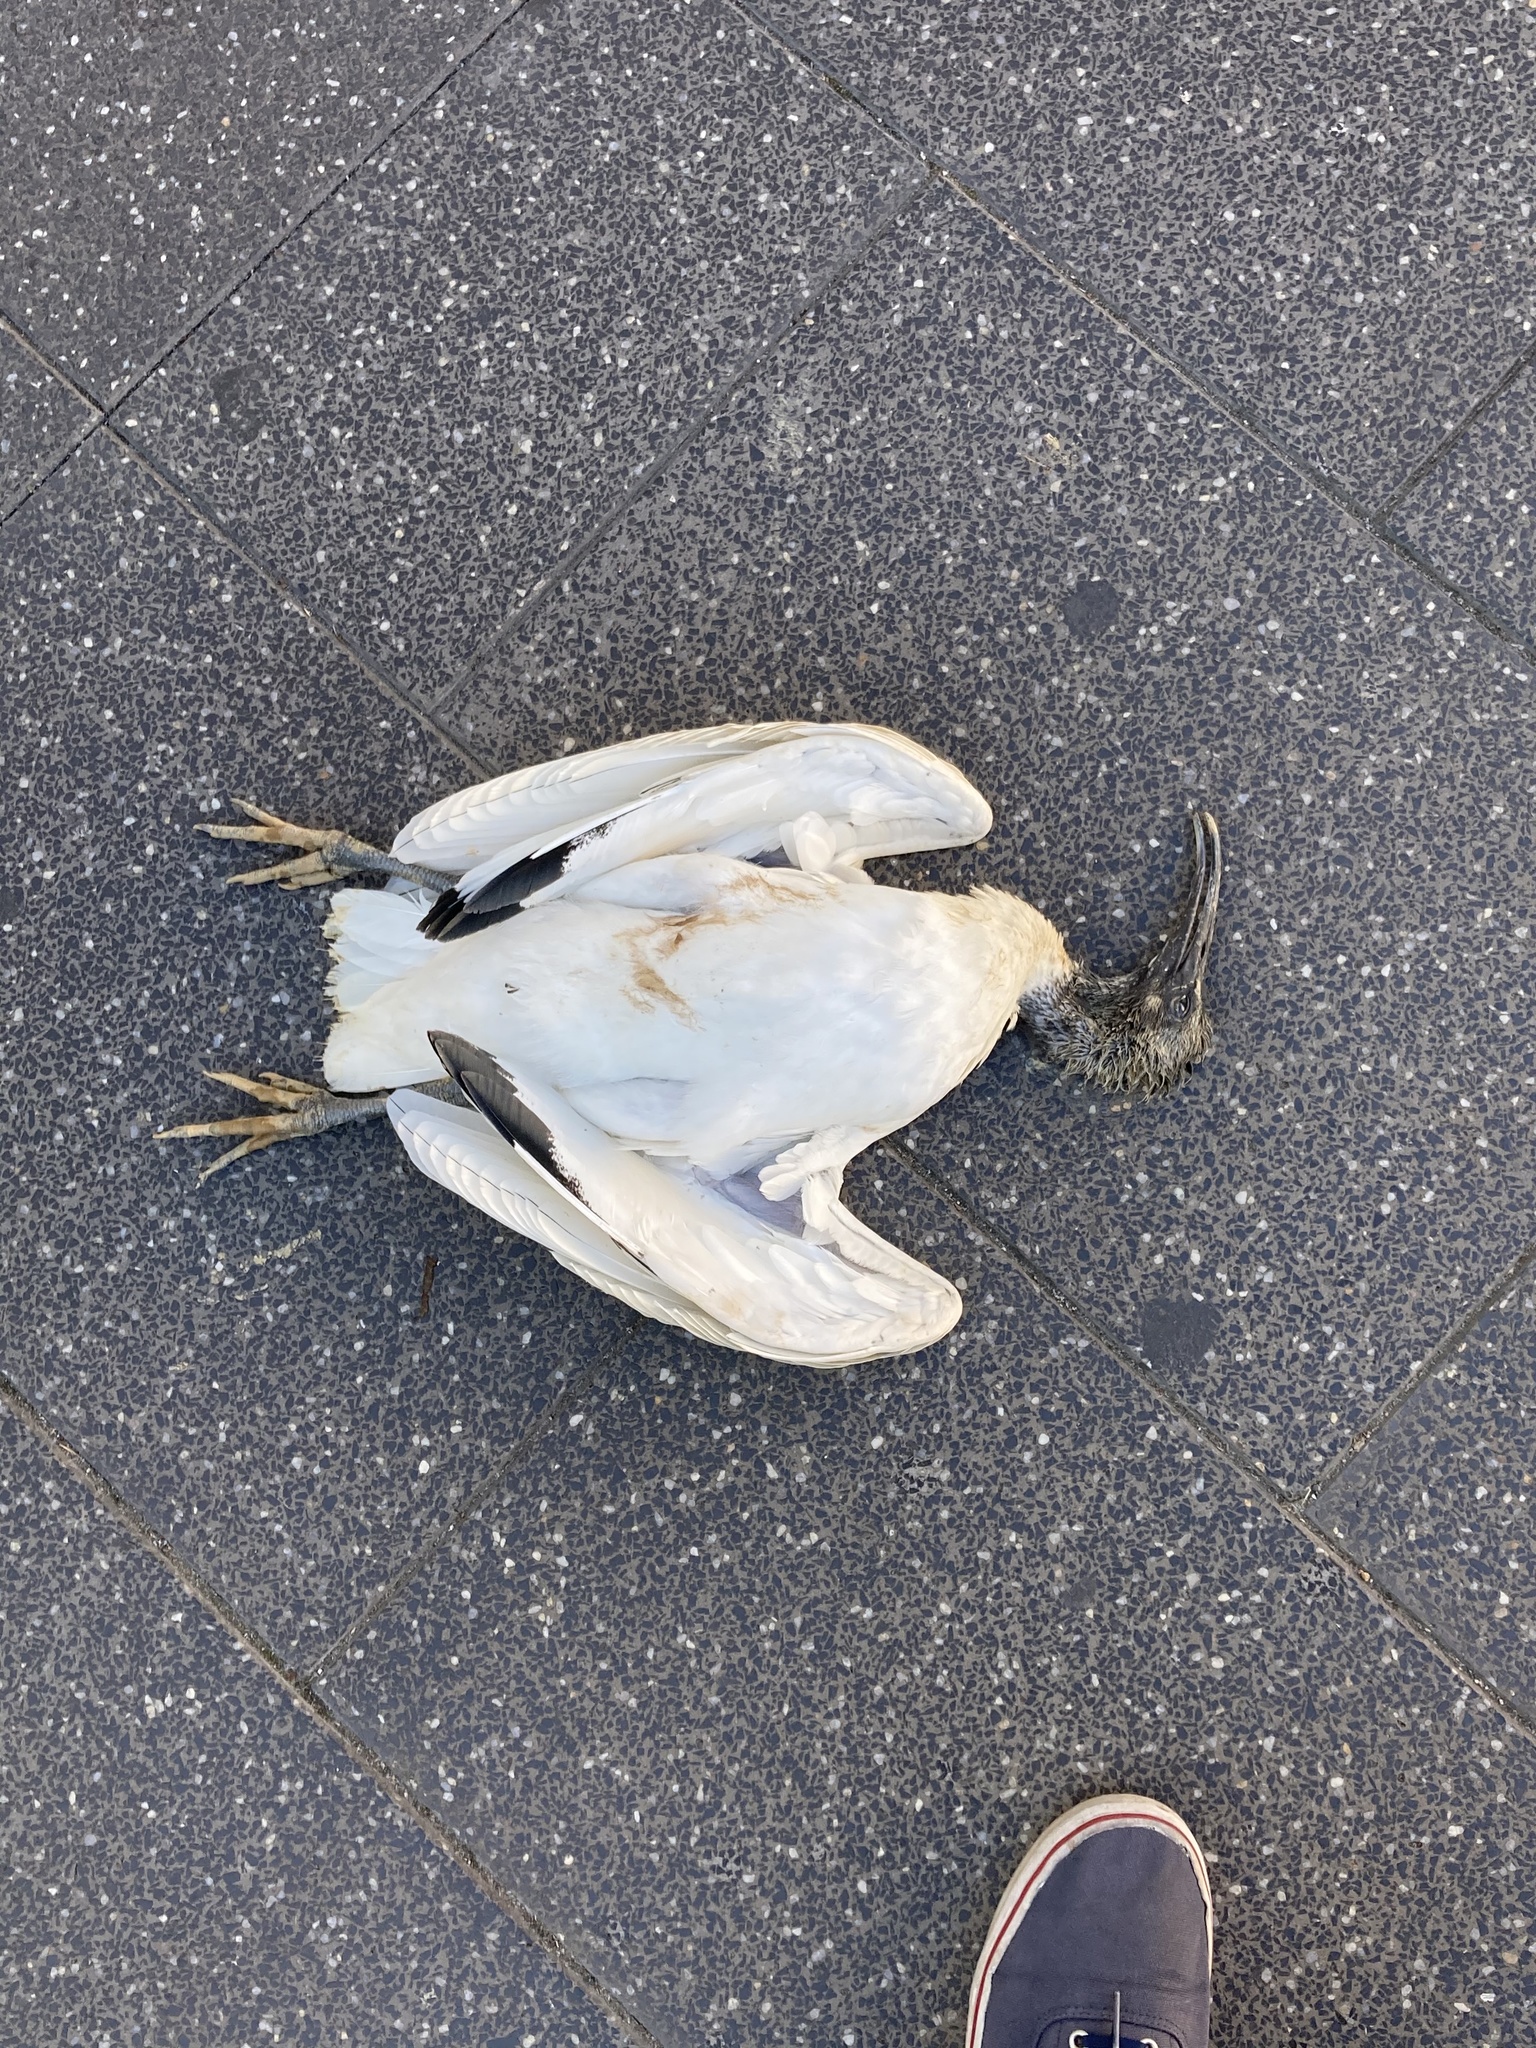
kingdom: Animalia
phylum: Chordata
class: Aves
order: Pelecaniformes
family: Threskiornithidae
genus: Threskiornis
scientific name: Threskiornis molucca
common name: Australian white ibis
